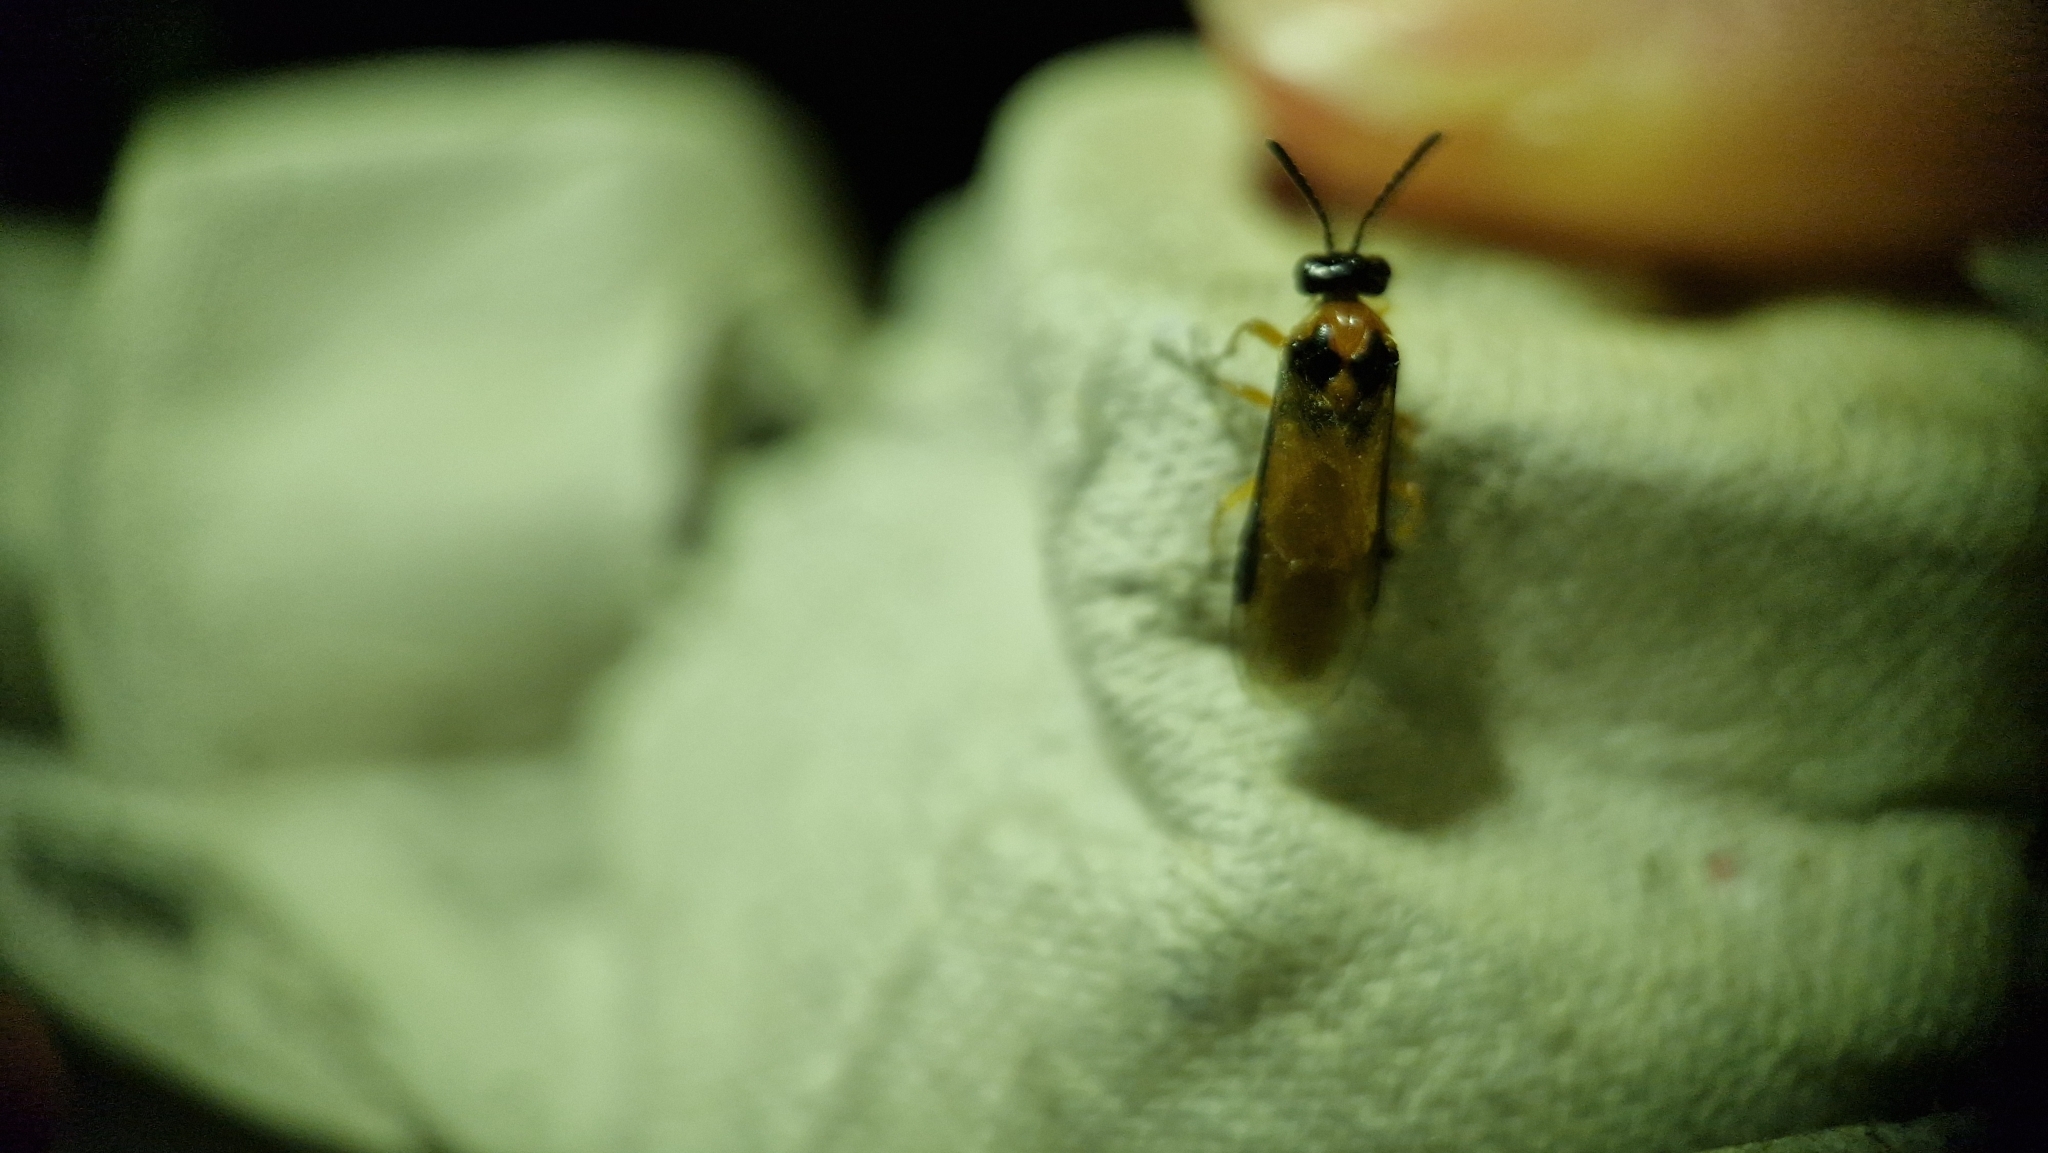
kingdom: Animalia
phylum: Arthropoda
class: Insecta
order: Hymenoptera
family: Tenthredinidae
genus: Athalia
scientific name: Athalia rosae
